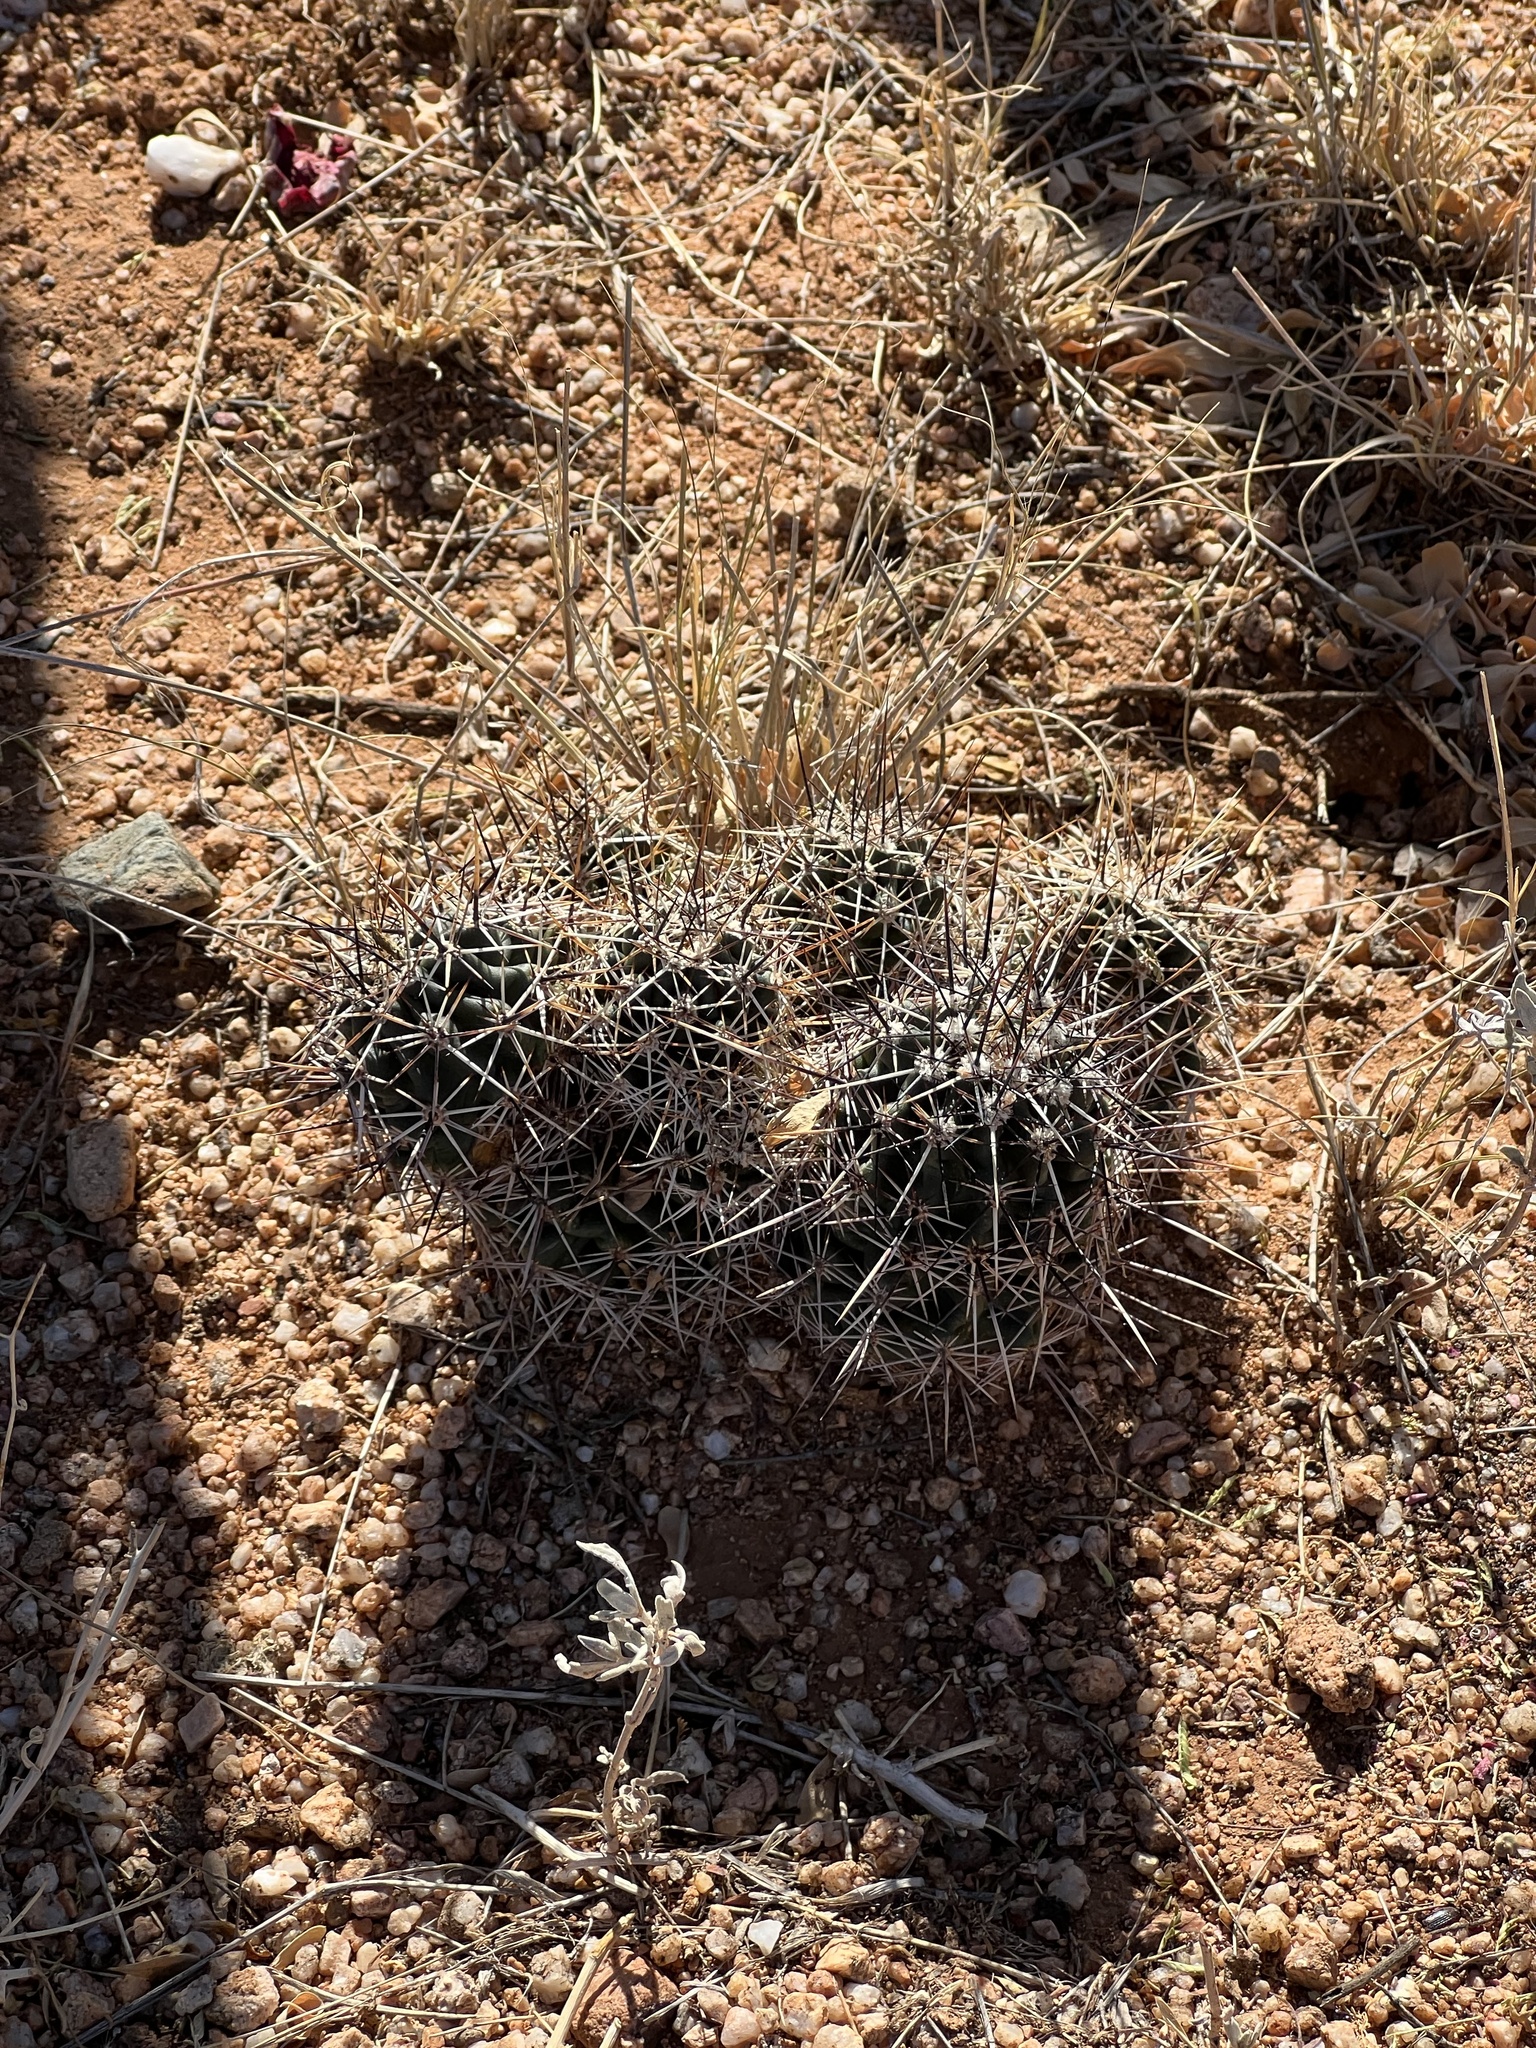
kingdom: Plantae
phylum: Tracheophyta
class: Magnoliopsida
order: Caryophyllales
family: Cactaceae
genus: Echinocereus
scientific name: Echinocereus fasciculatus
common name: Bundle hedgehog
